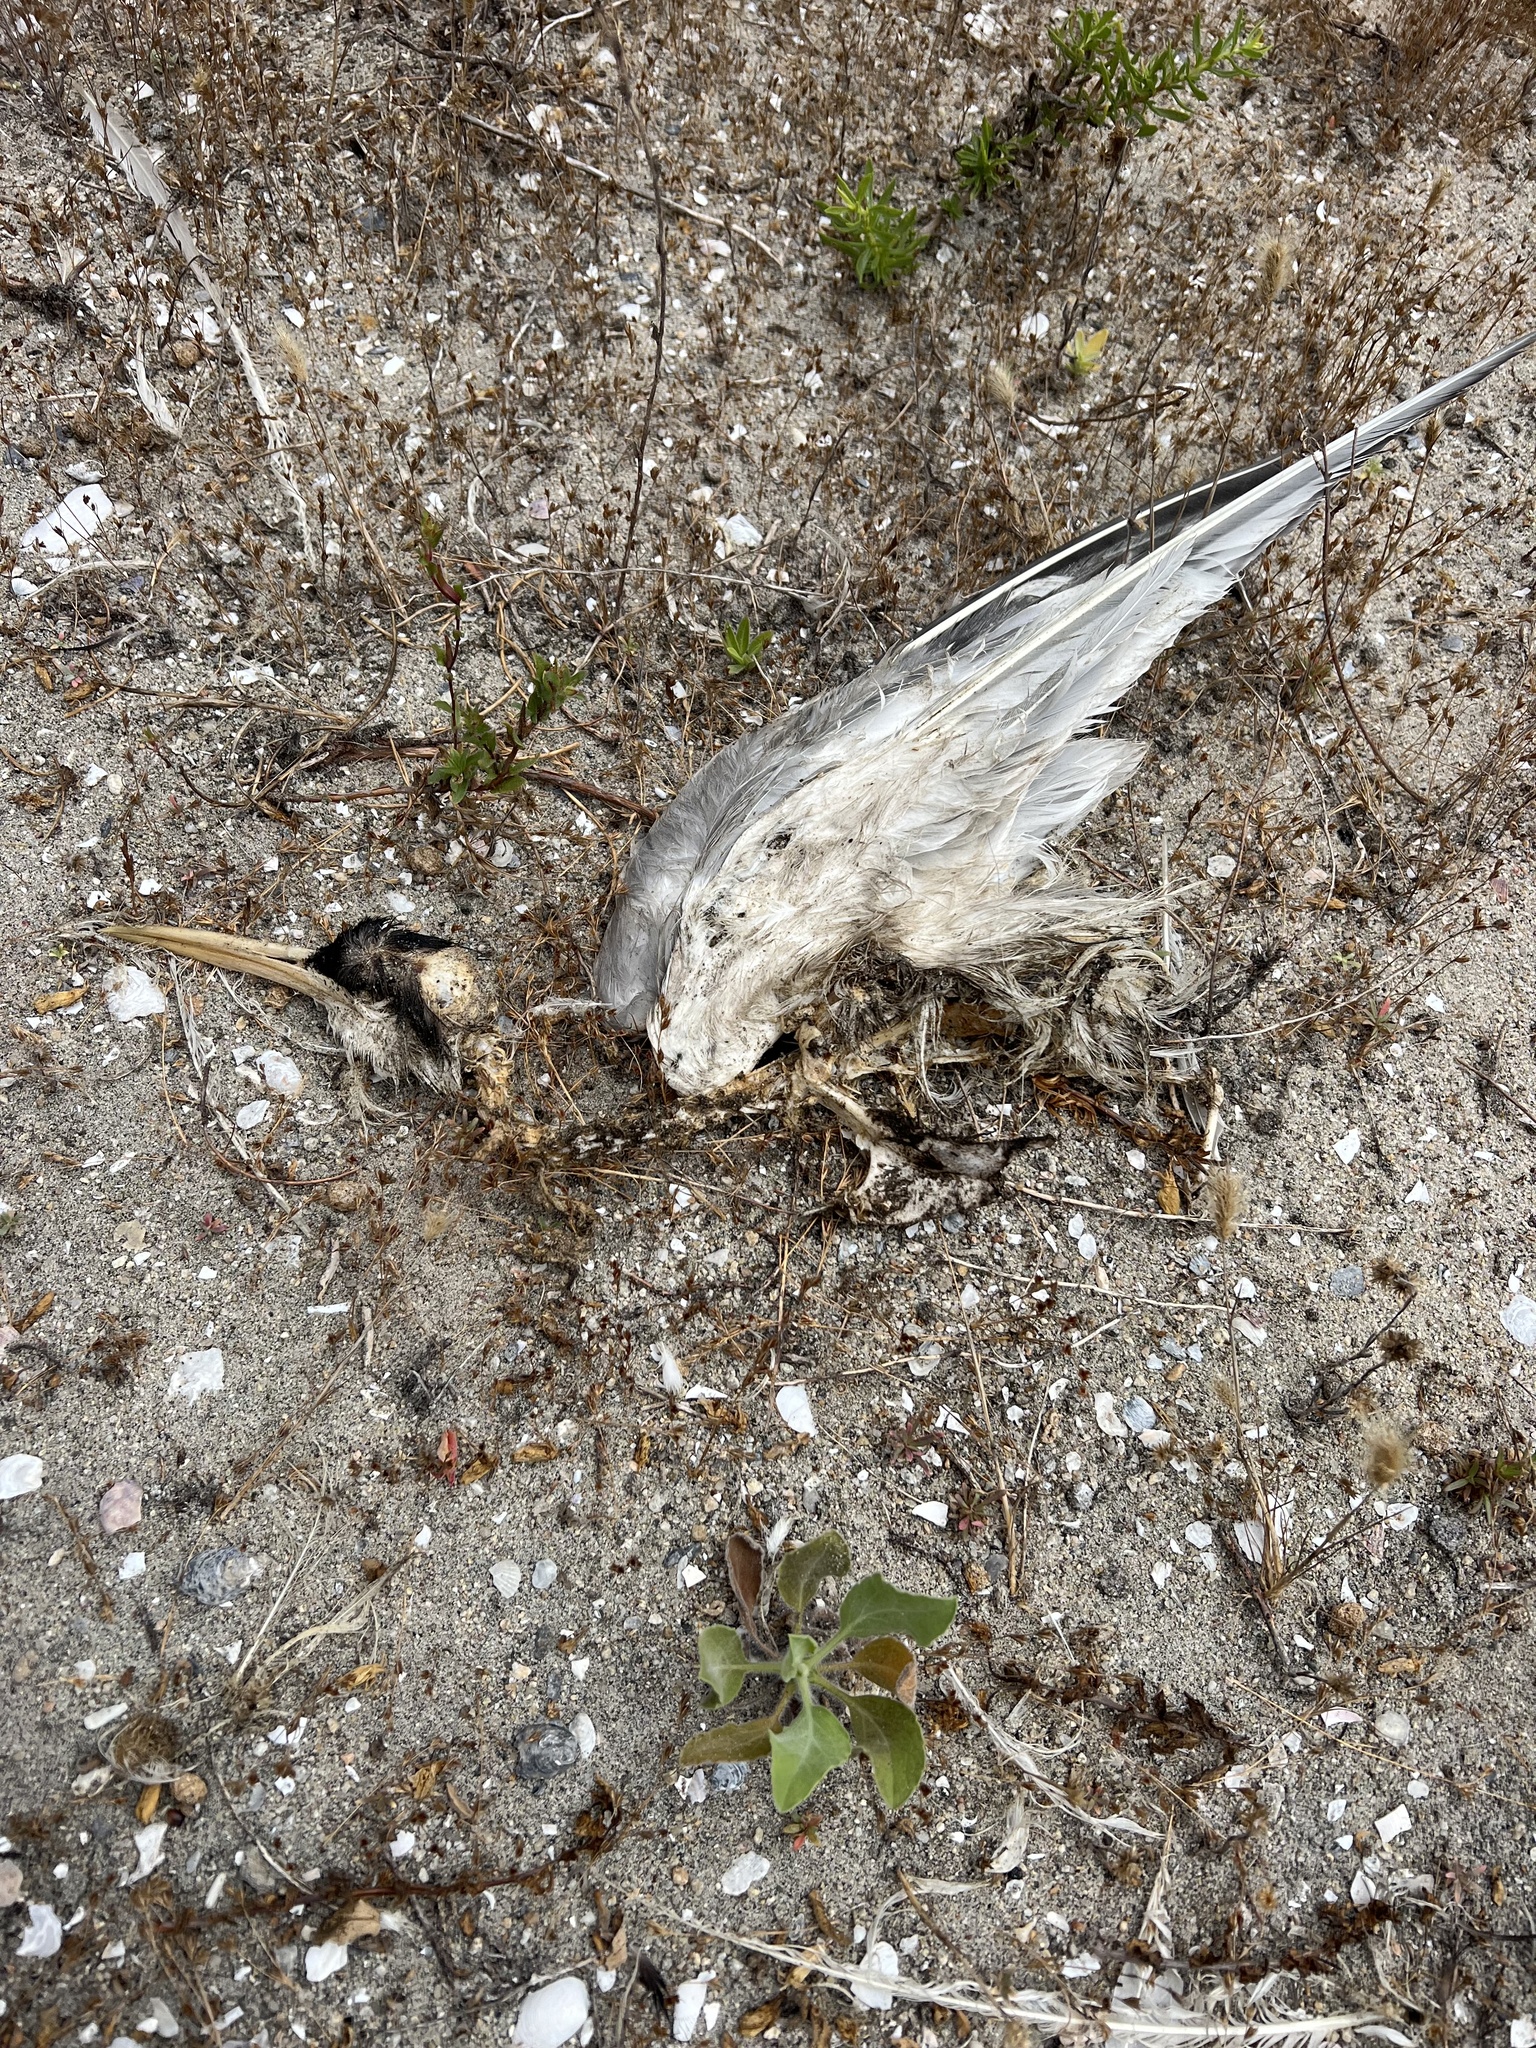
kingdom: Animalia
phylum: Chordata
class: Aves
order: Charadriiformes
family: Laridae
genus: Thalasseus
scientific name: Thalasseus elegans
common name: Elegant tern
